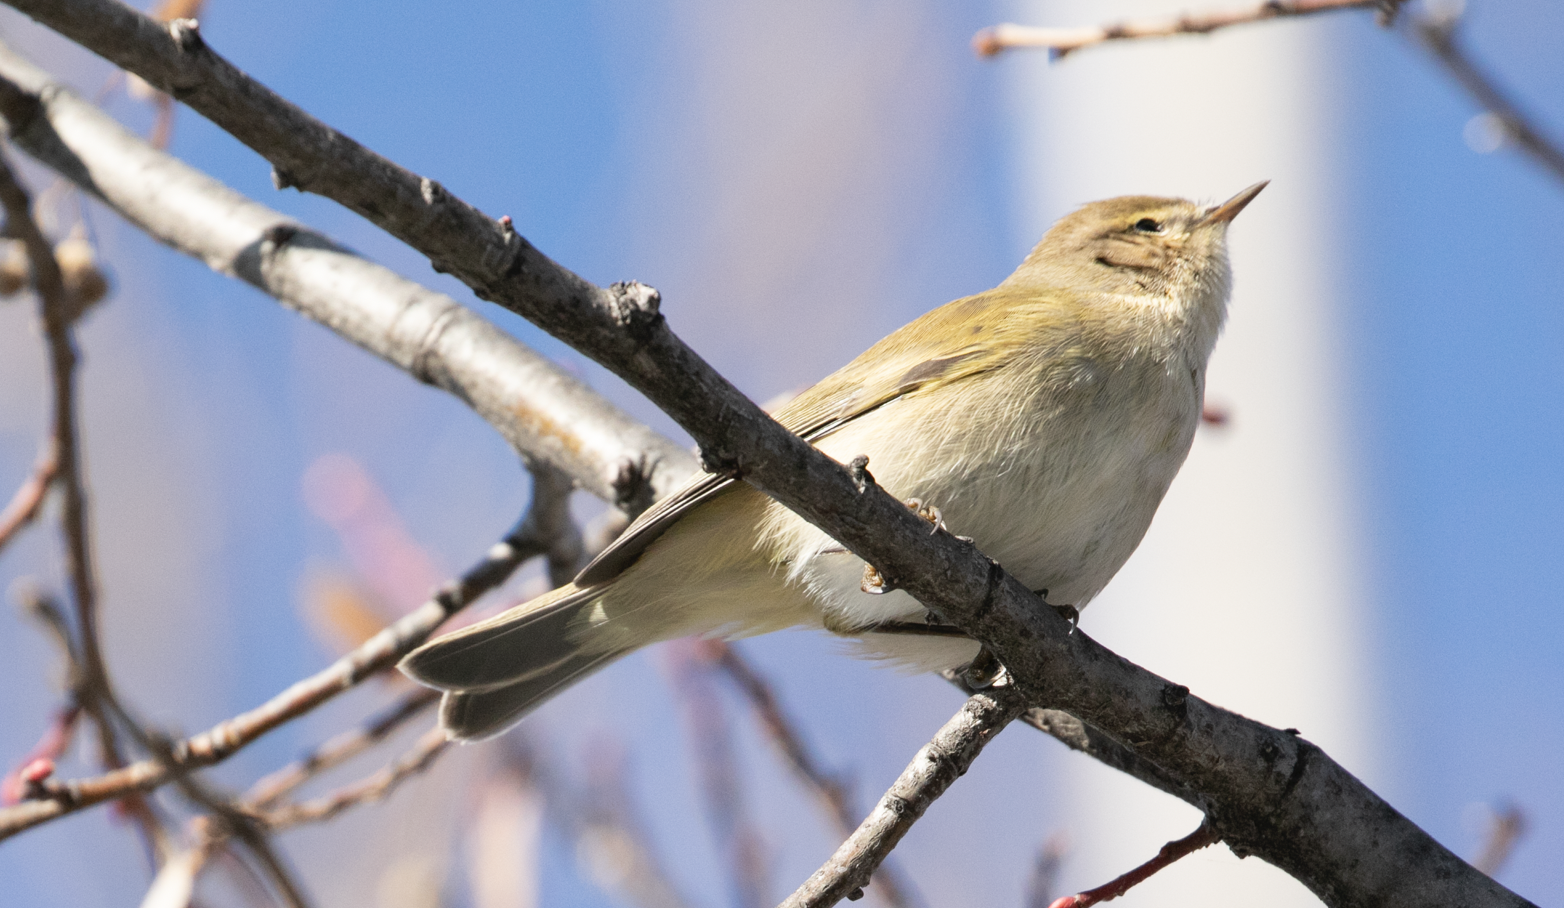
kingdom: Animalia
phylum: Chordata
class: Aves
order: Passeriformes
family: Phylloscopidae
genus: Phylloscopus
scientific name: Phylloscopus collybita
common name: Common chiffchaff
